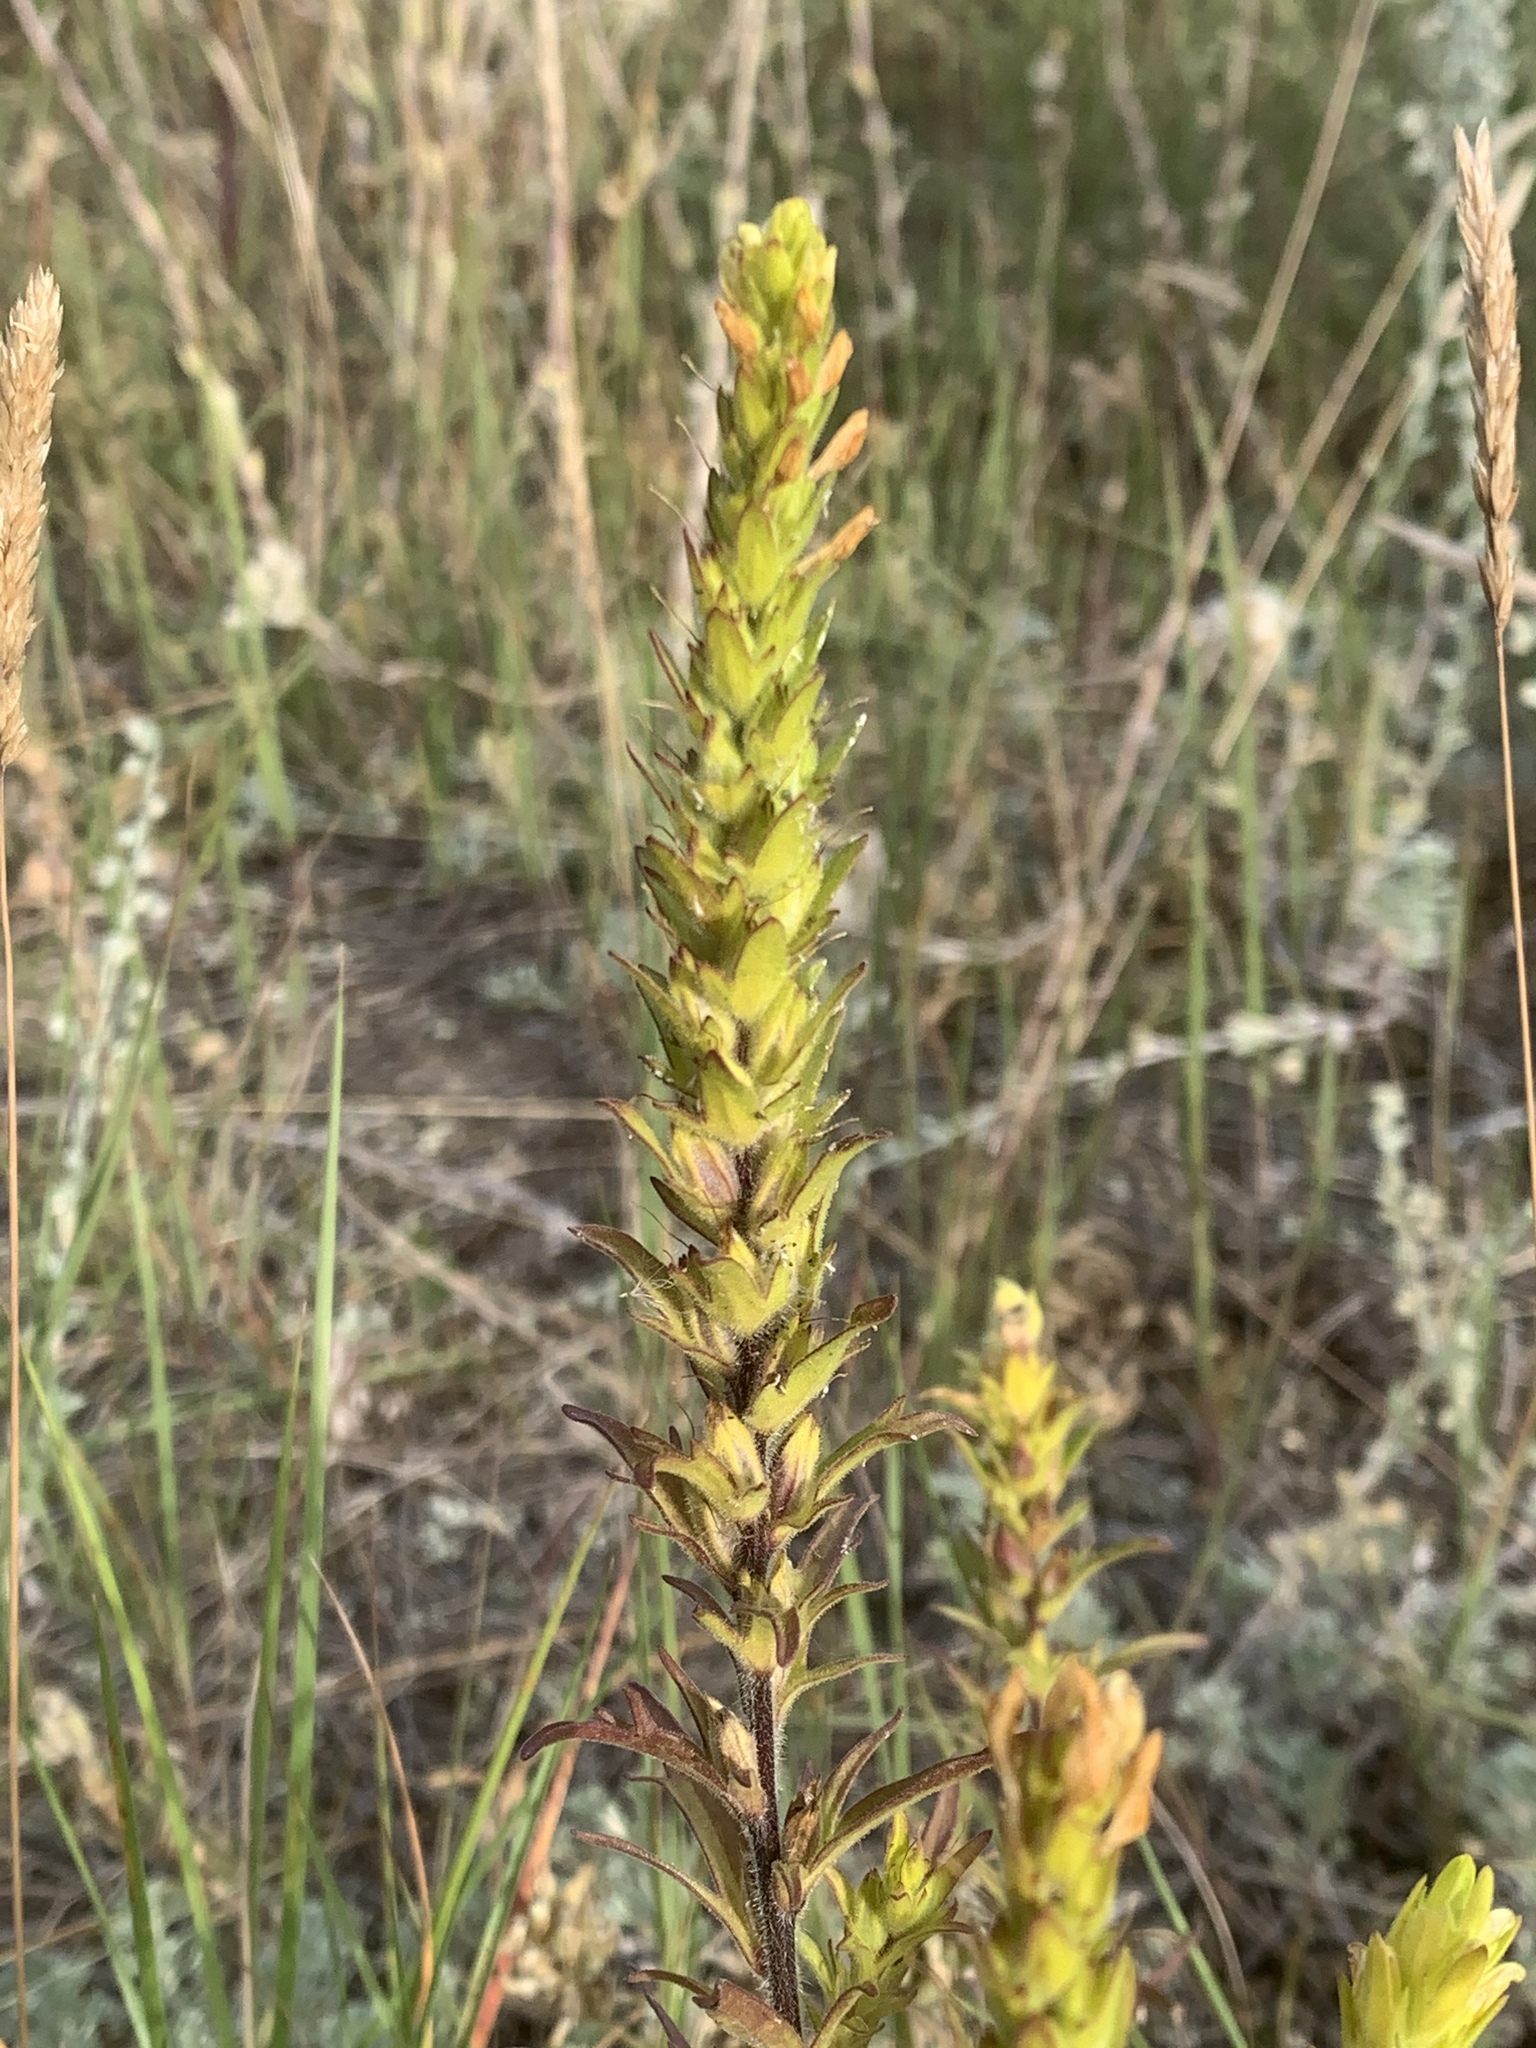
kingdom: Plantae
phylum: Tracheophyta
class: Magnoliopsida
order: Lamiales
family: Orobanchaceae
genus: Orthocarpus
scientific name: Orthocarpus luteus
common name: Golden-tongue owl's-clover
